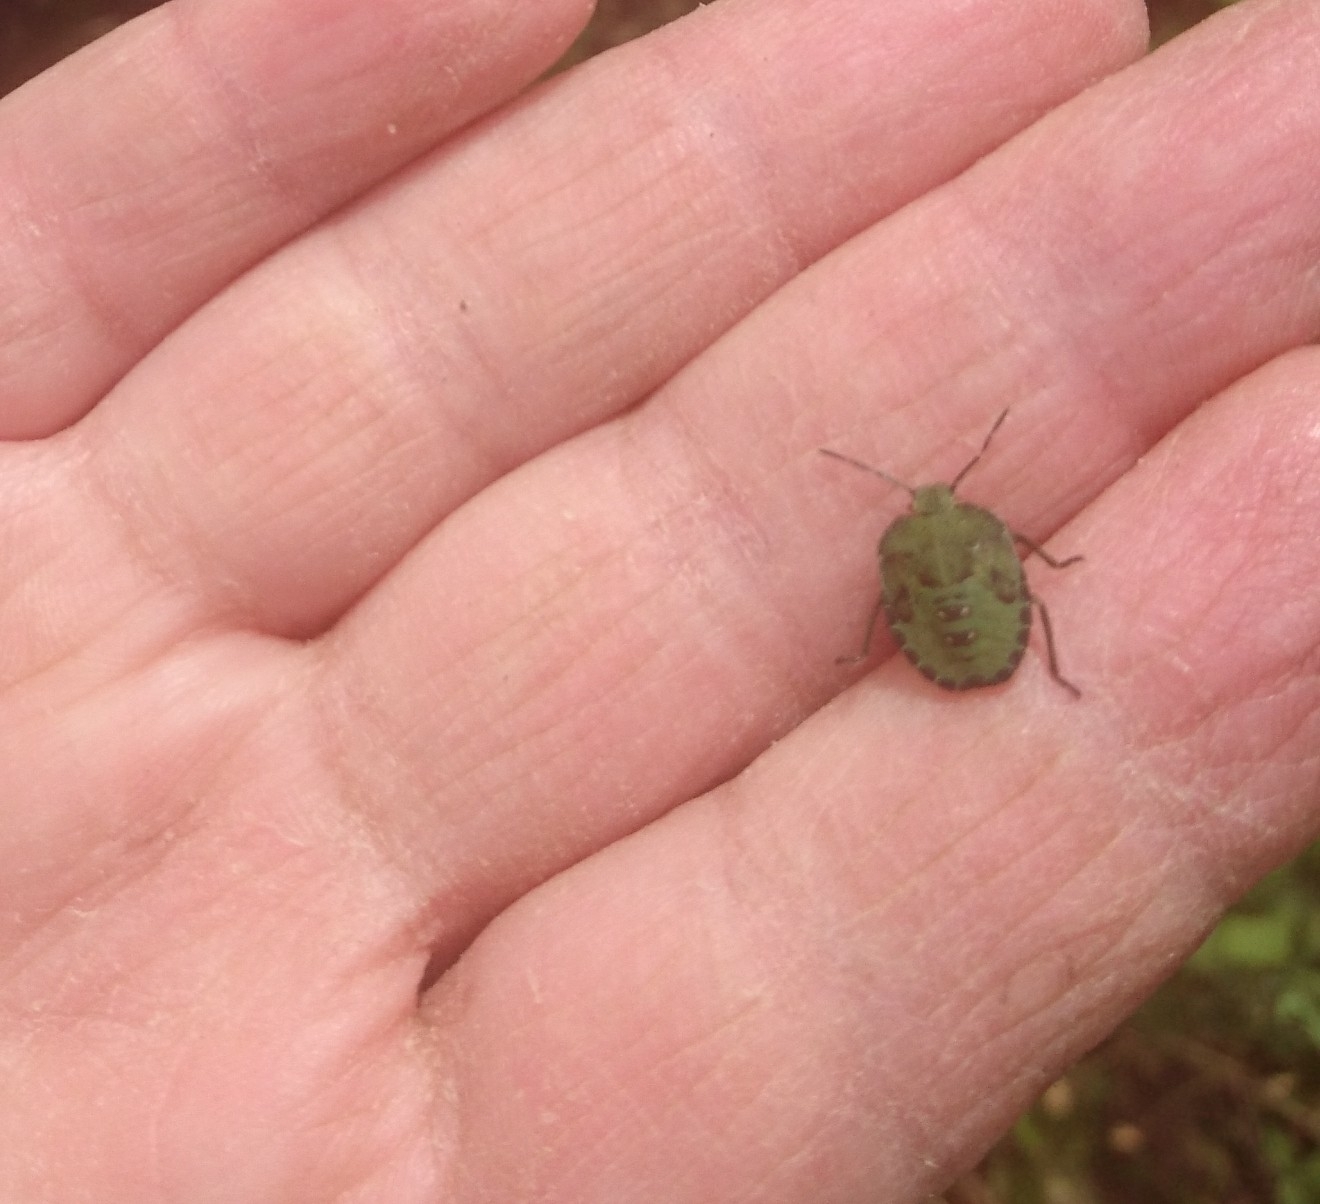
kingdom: Animalia
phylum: Arthropoda
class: Insecta
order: Hemiptera
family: Pentatomidae
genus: Palomena
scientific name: Palomena prasina
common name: Green shieldbug
